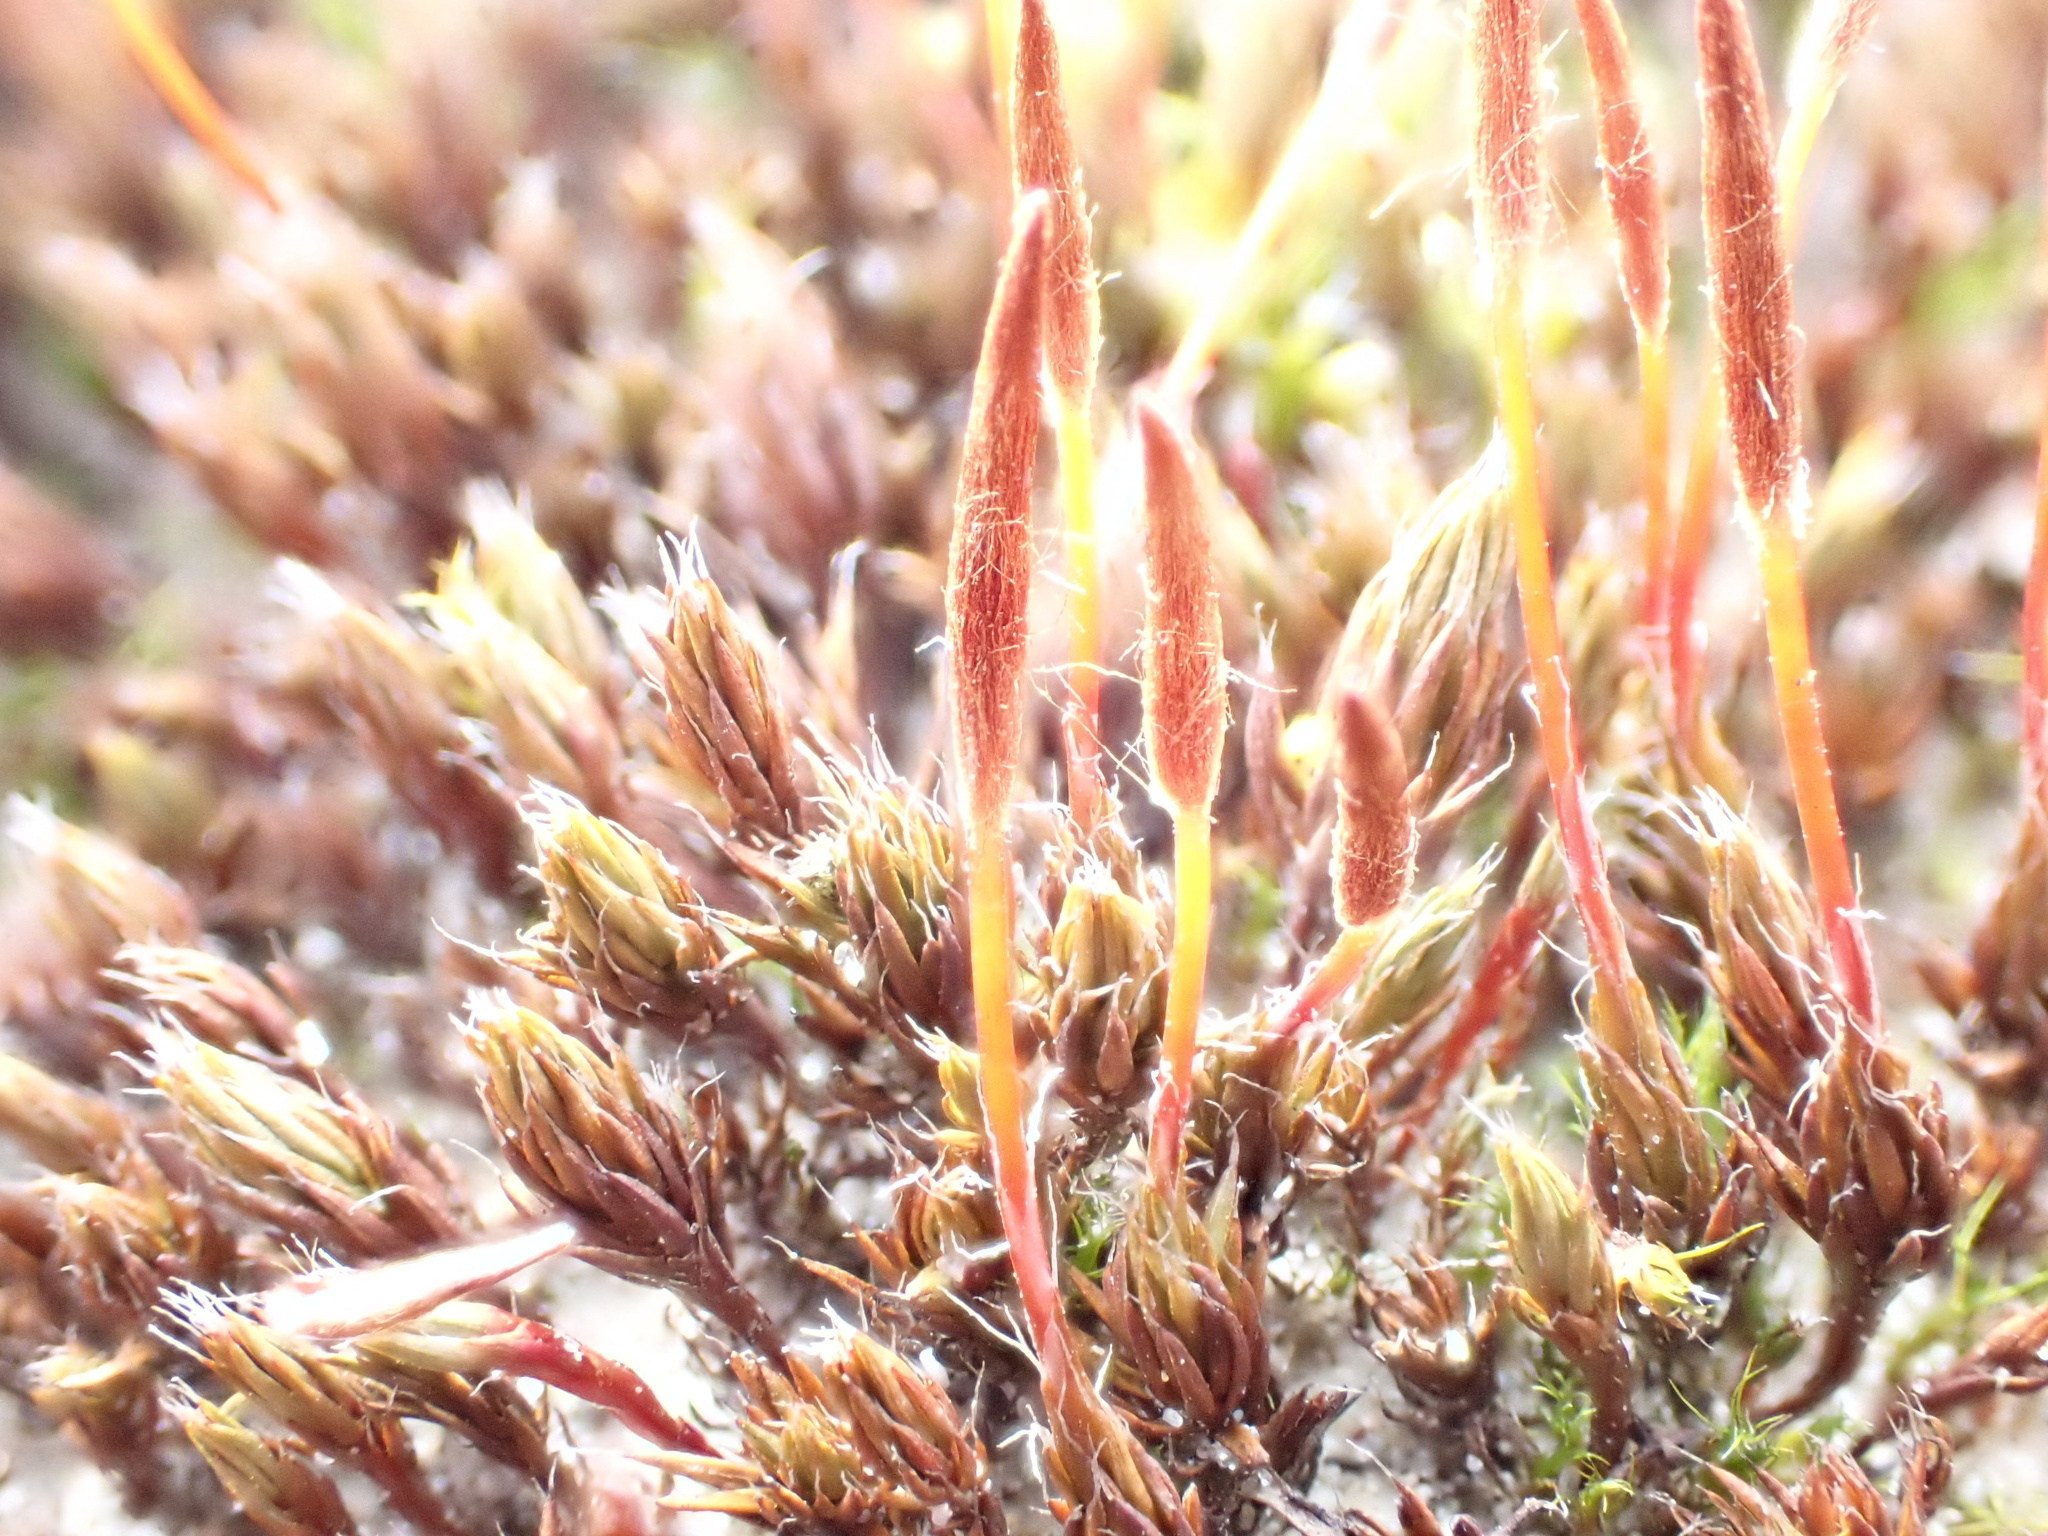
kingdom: Plantae
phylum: Bryophyta
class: Polytrichopsida
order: Polytrichales
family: Polytrichaceae
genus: Polytrichum
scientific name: Polytrichum piliferum
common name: Bristly haircap
